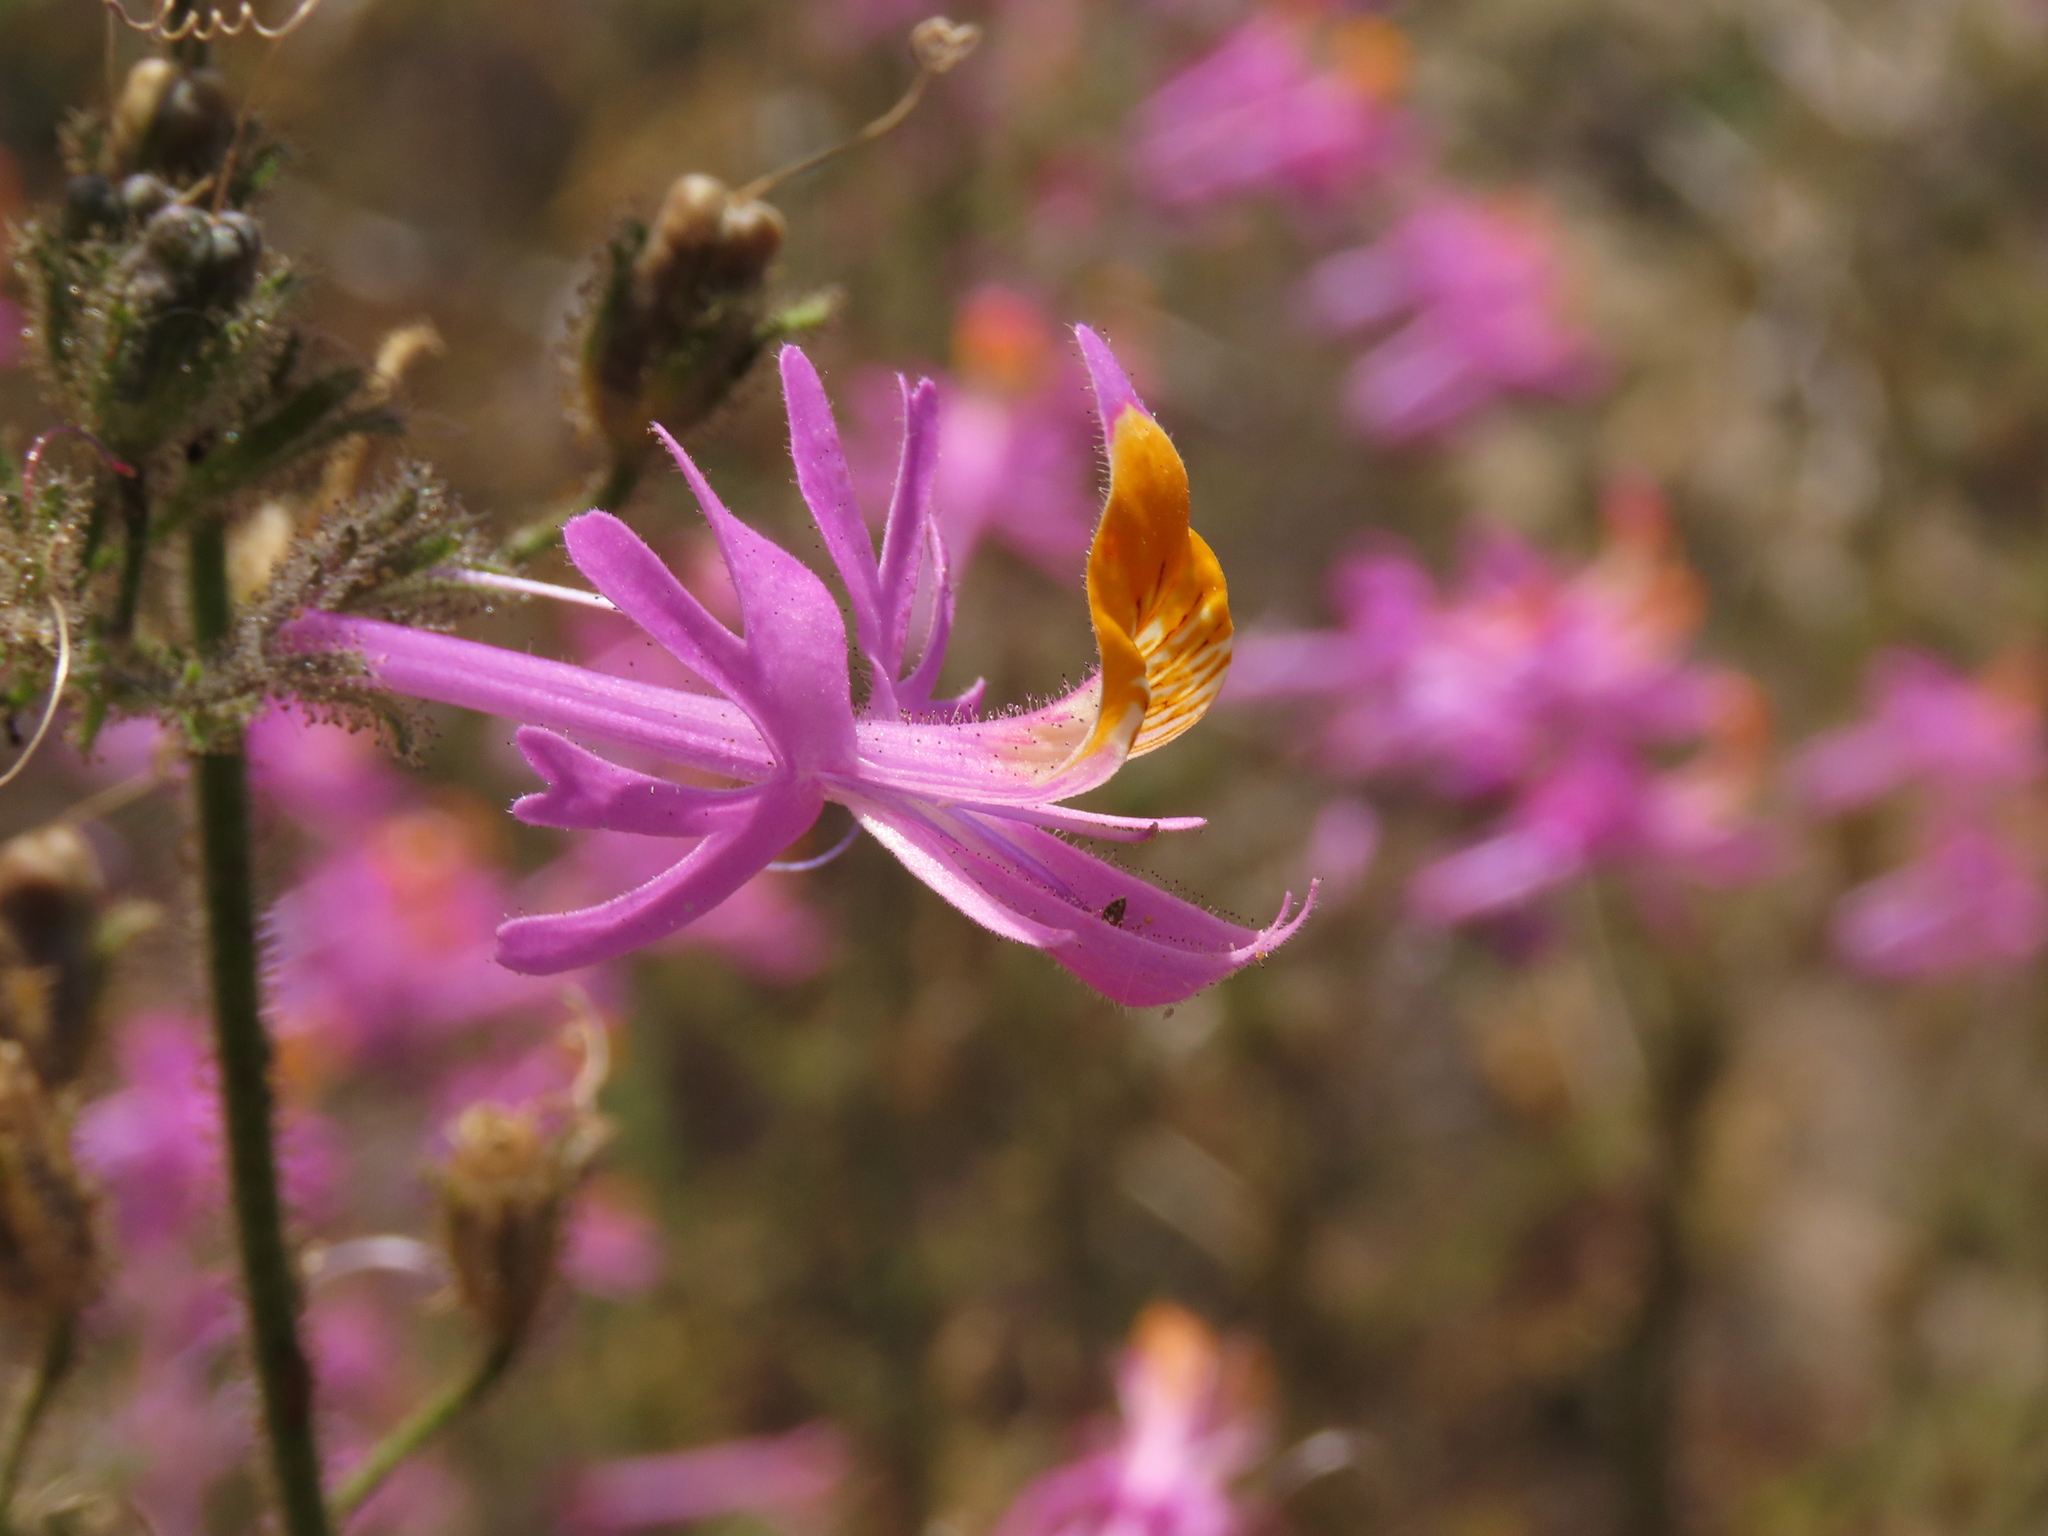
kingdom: Plantae
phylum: Tracheophyta
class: Magnoliopsida
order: Solanales
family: Solanaceae
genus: Schizanthus
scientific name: Schizanthus hookeri
